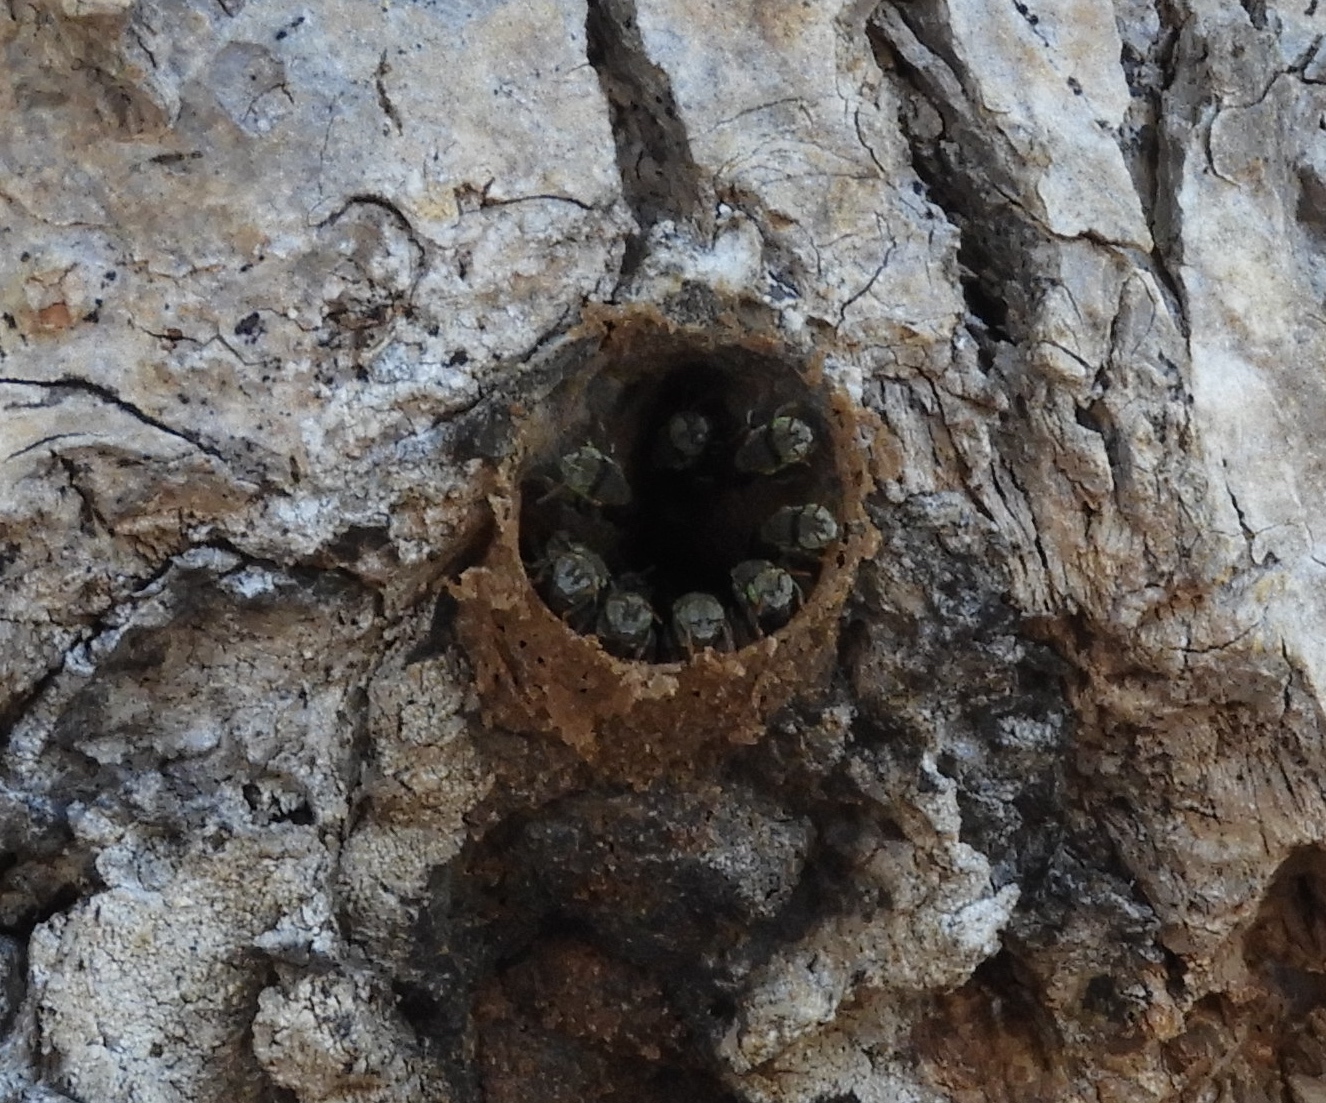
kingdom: Animalia
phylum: Arthropoda
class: Insecta
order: Hymenoptera
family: Apidae
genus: Nannotrigona
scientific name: Nannotrigona perilampoides
